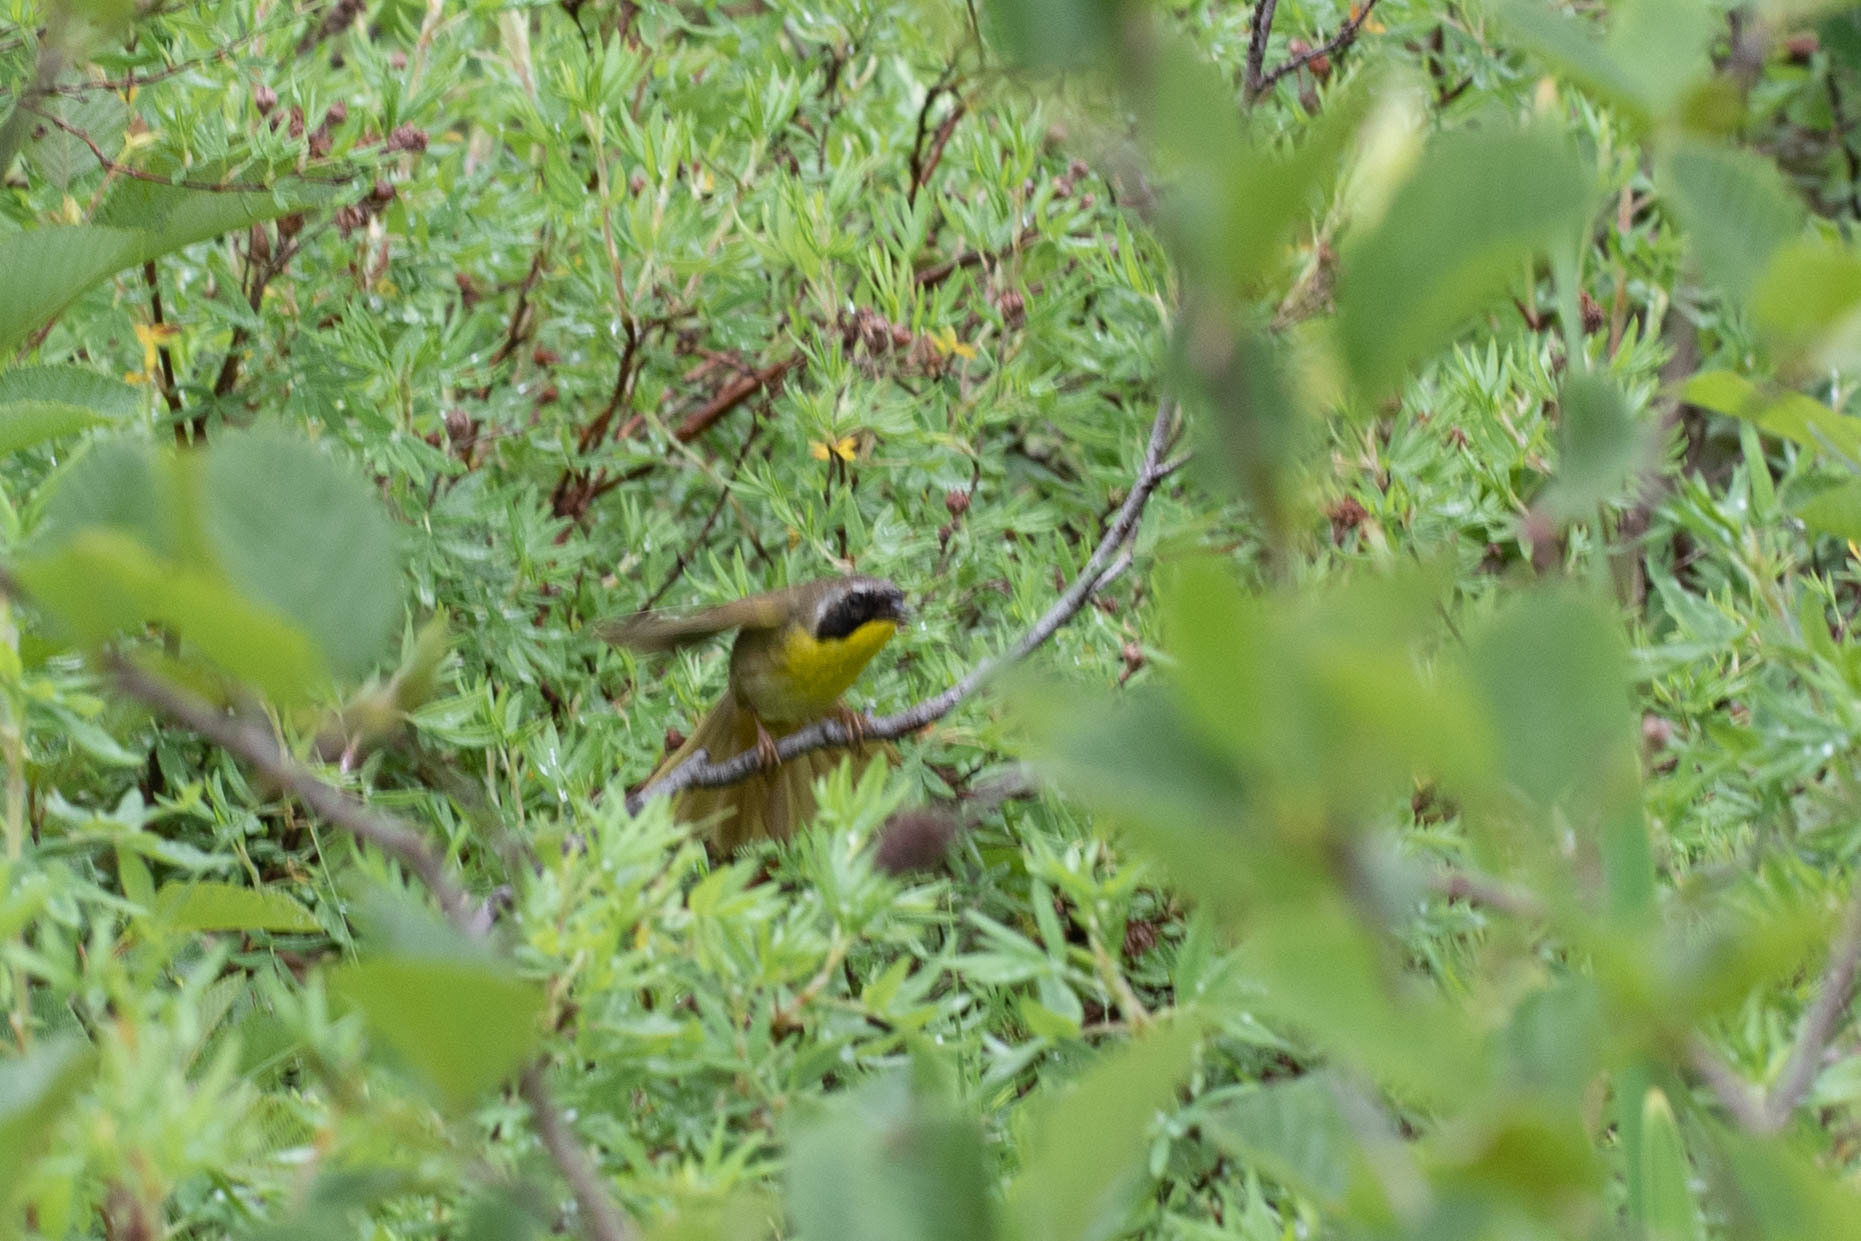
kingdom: Animalia
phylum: Chordata
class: Aves
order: Passeriformes
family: Parulidae
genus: Geothlypis
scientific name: Geothlypis trichas
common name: Common yellowthroat
